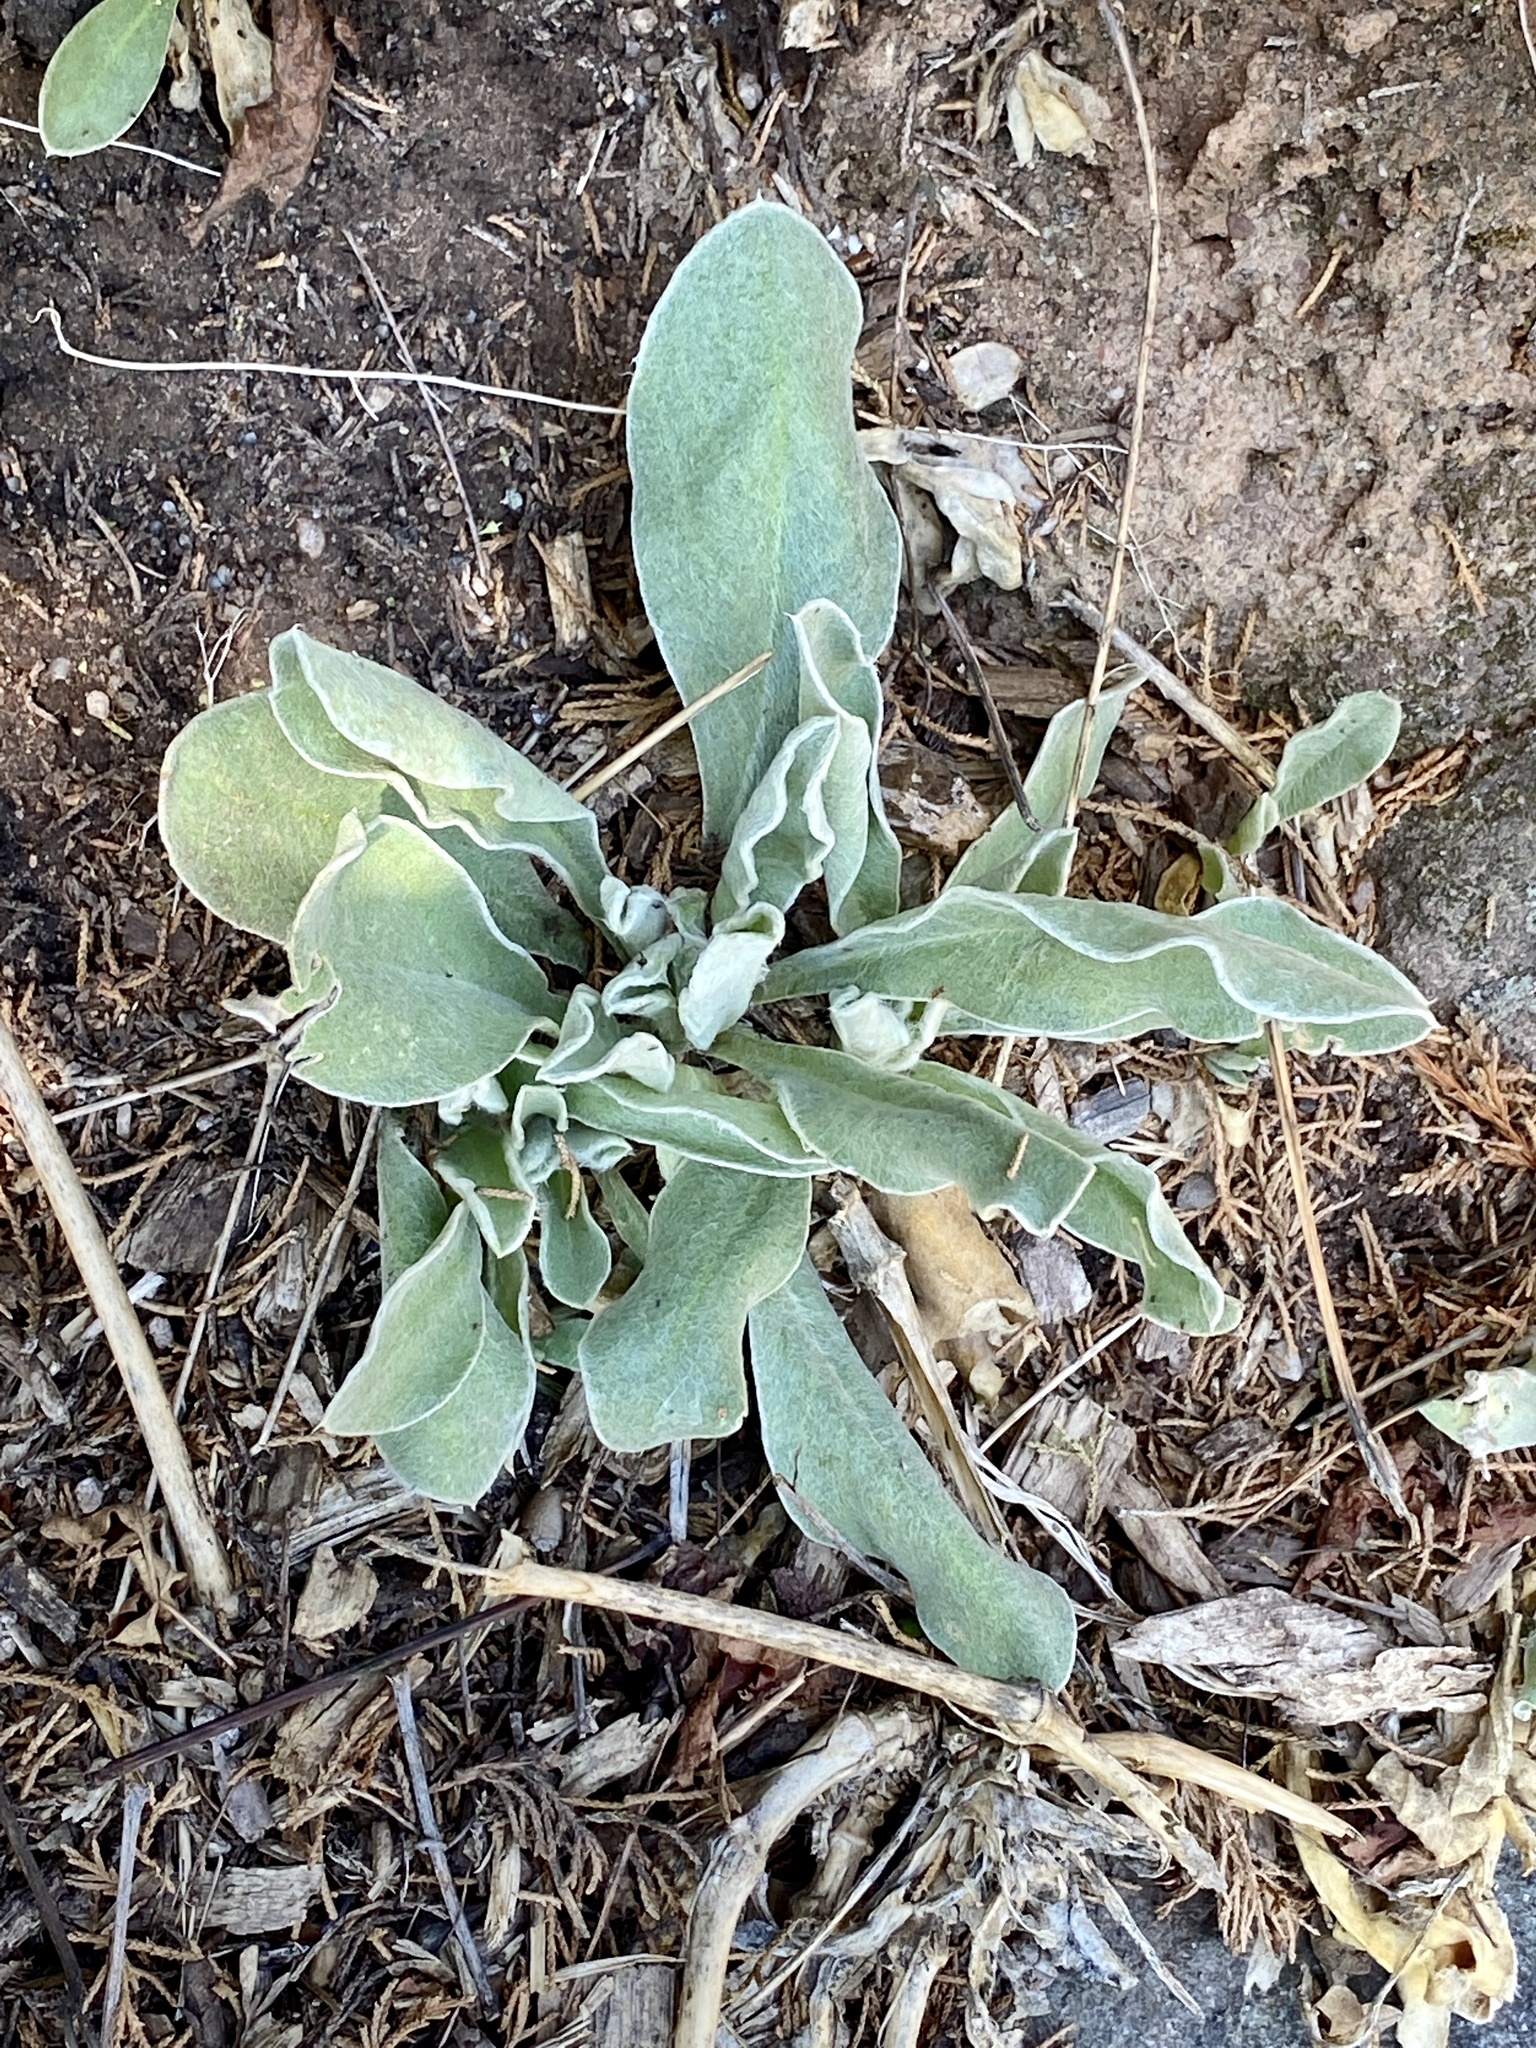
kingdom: Plantae
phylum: Tracheophyta
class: Magnoliopsida
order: Caryophyllales
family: Caryophyllaceae
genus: Silene
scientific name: Silene coronaria
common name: Rose campion
